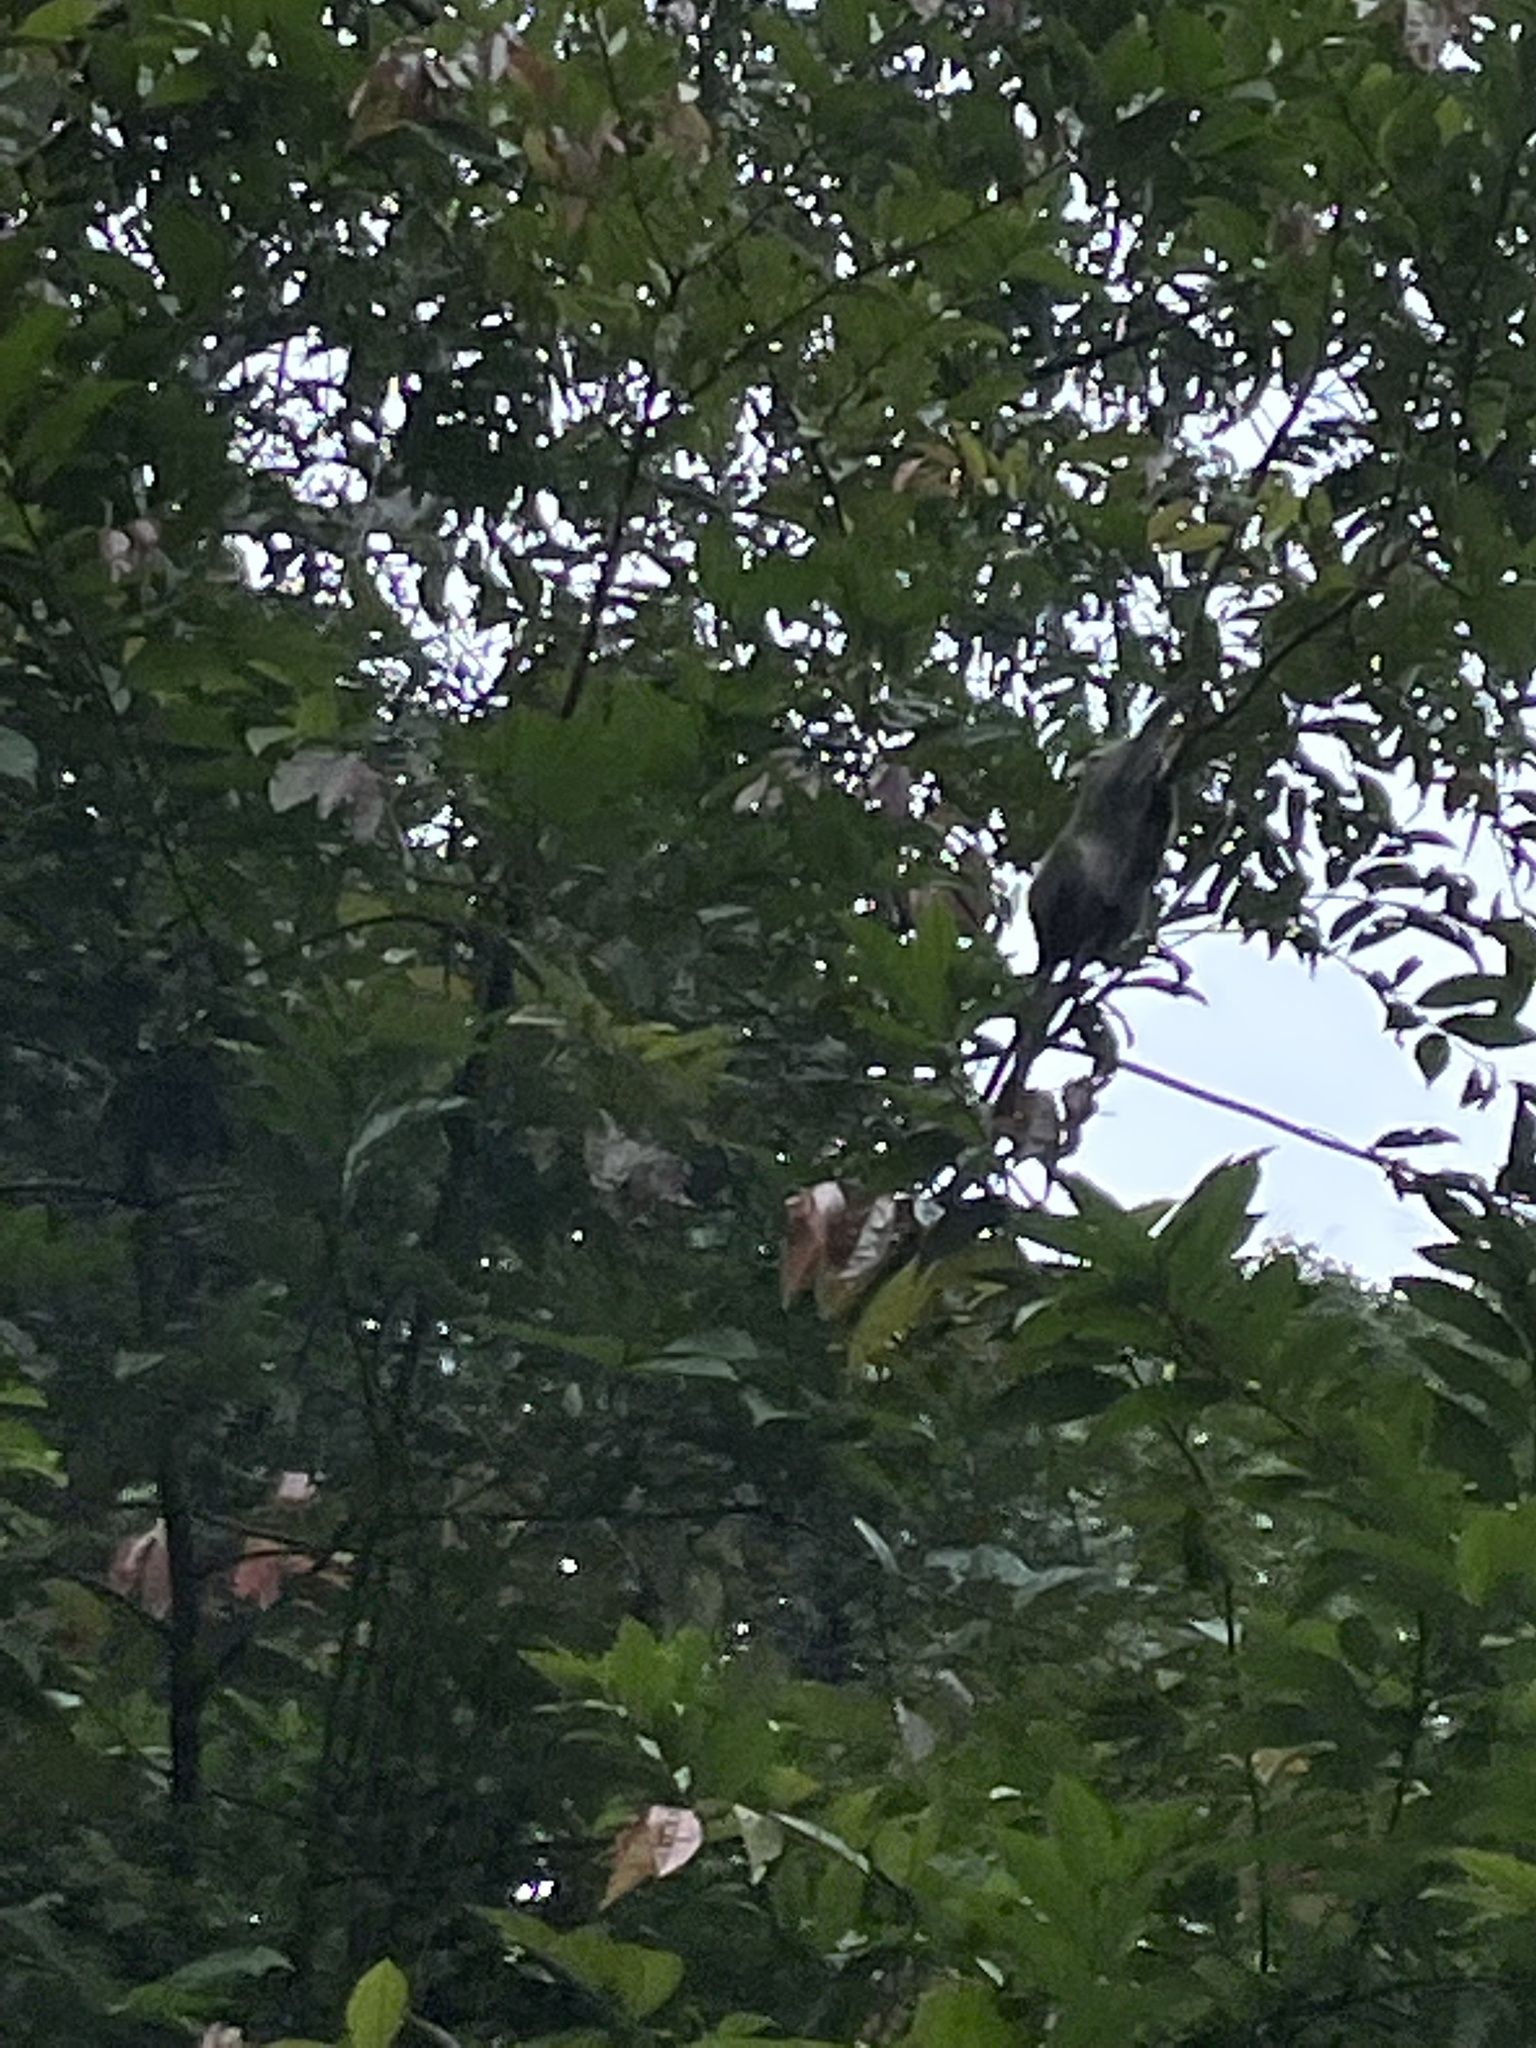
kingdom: Animalia
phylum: Chordata
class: Mammalia
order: Primates
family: Cercopithecidae
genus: Macaca
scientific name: Macaca fascicularis
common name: Crab-eating macaque
